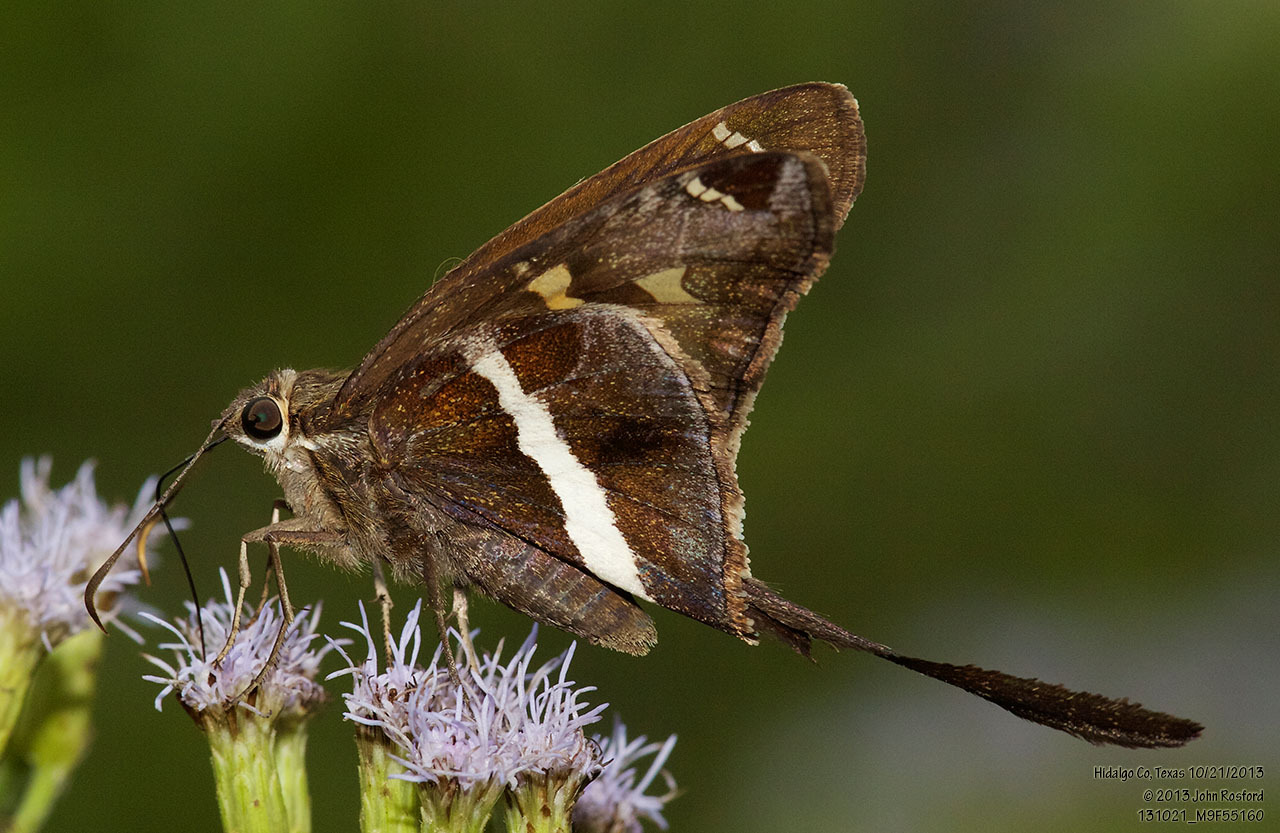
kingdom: Animalia
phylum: Arthropoda
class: Insecta
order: Lepidoptera
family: Hesperiidae
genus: Chioides
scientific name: Chioides catillus
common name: Silverbanded skipper
